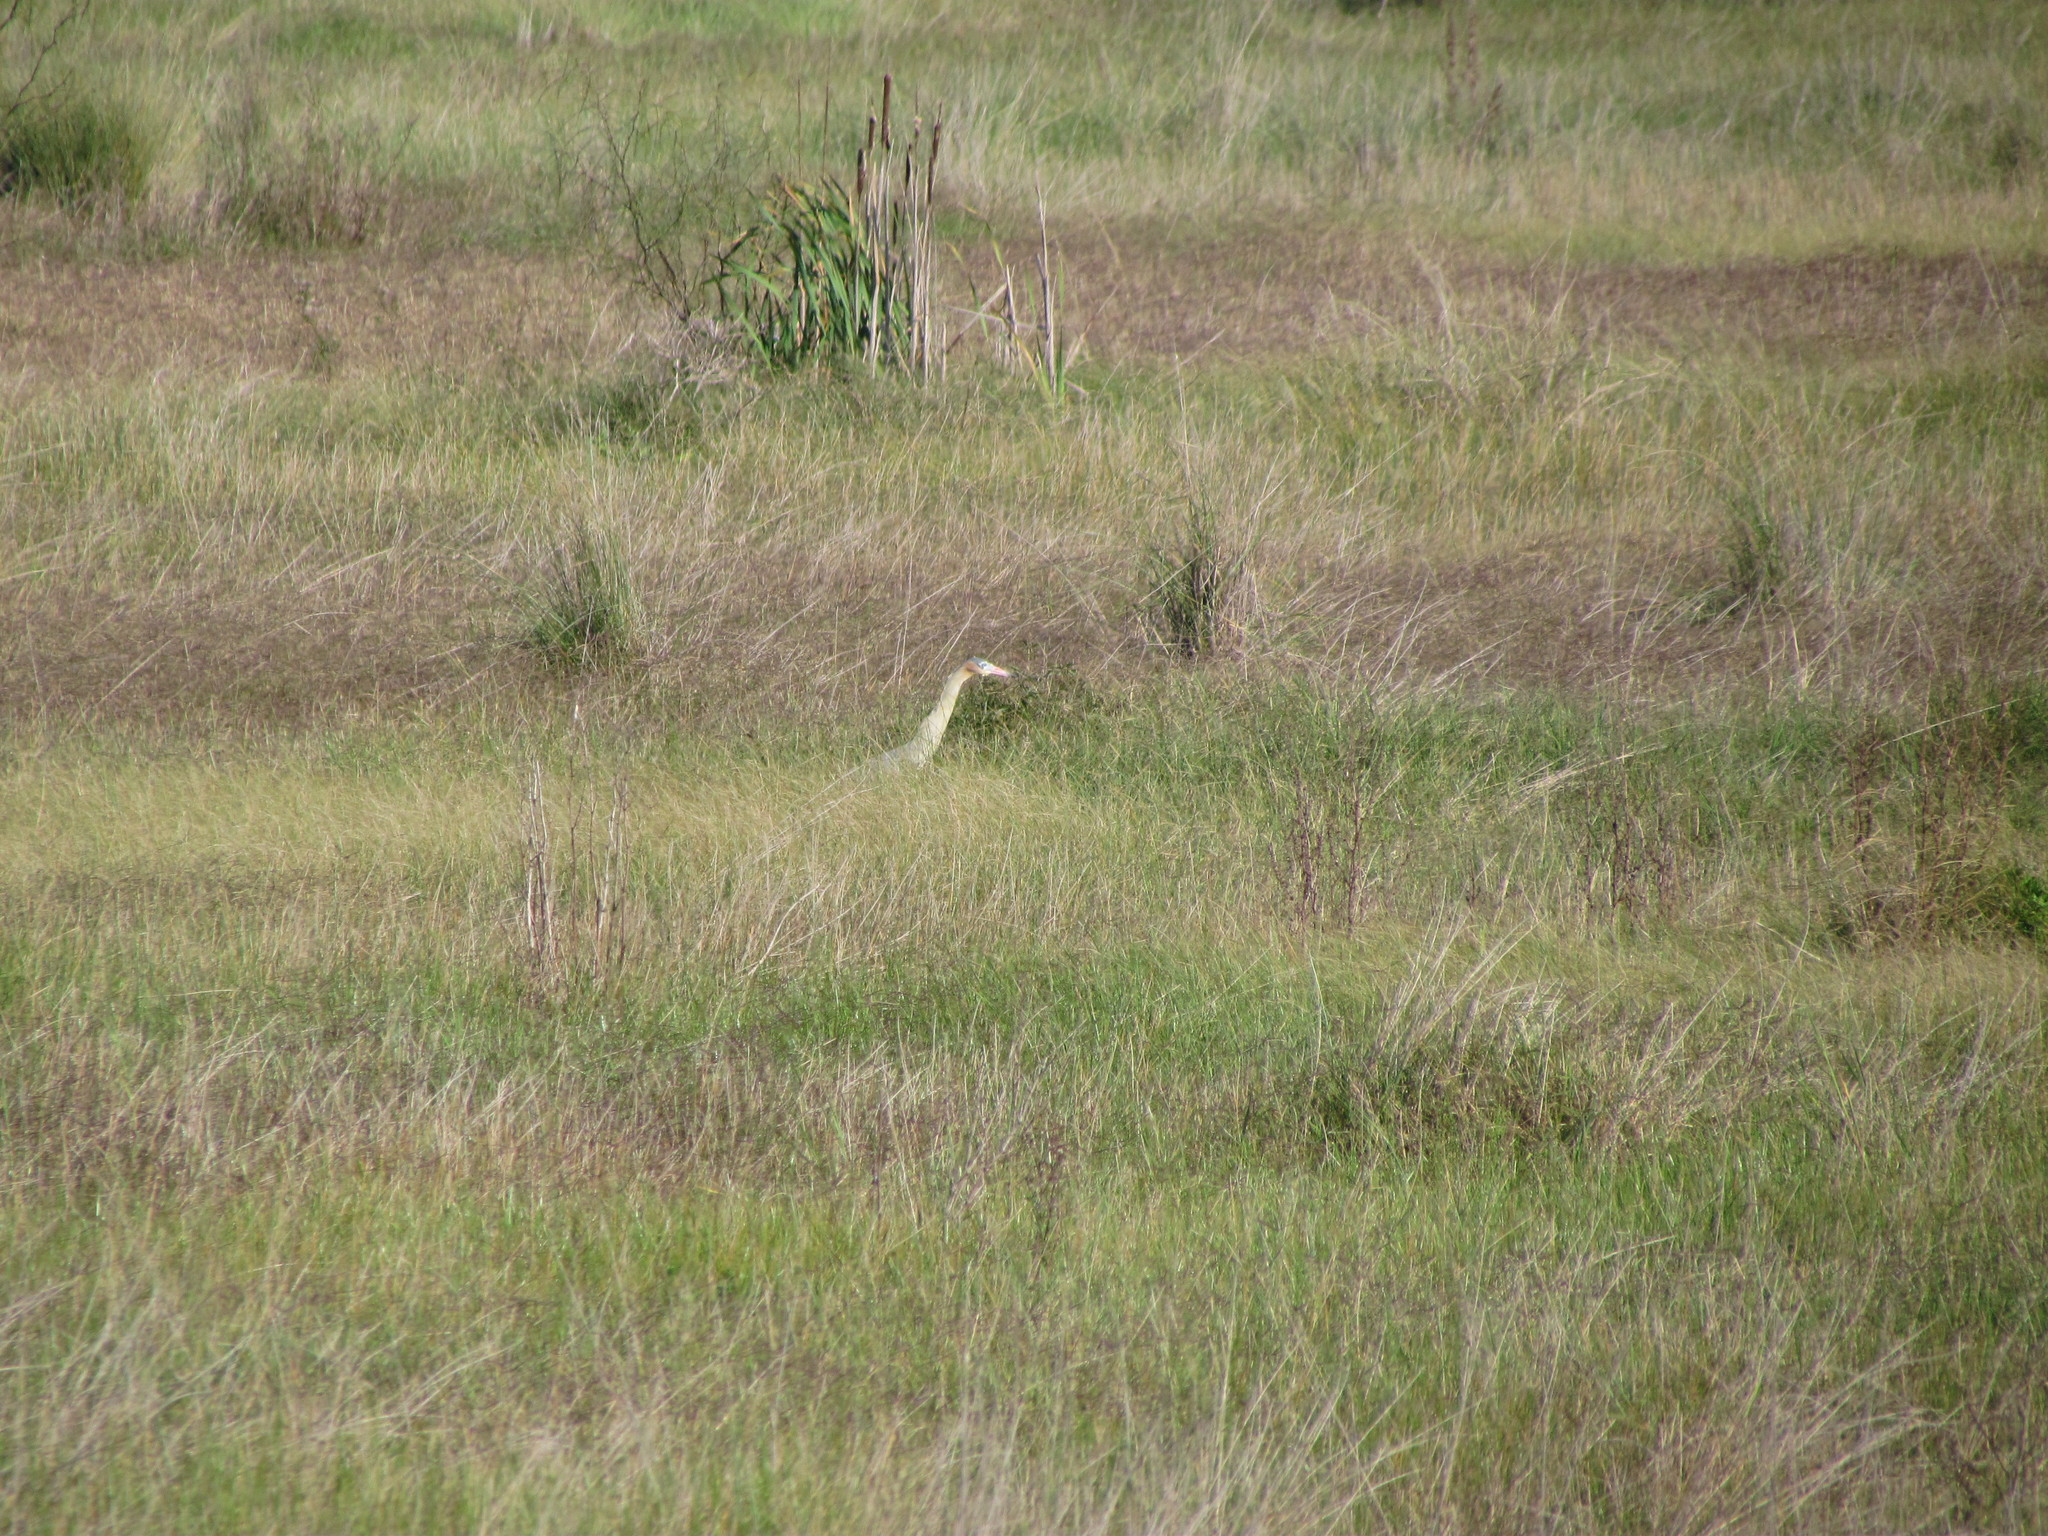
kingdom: Animalia
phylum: Chordata
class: Aves
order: Pelecaniformes
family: Ardeidae
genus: Syrigma
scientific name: Syrigma sibilatrix
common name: Whistling heron
